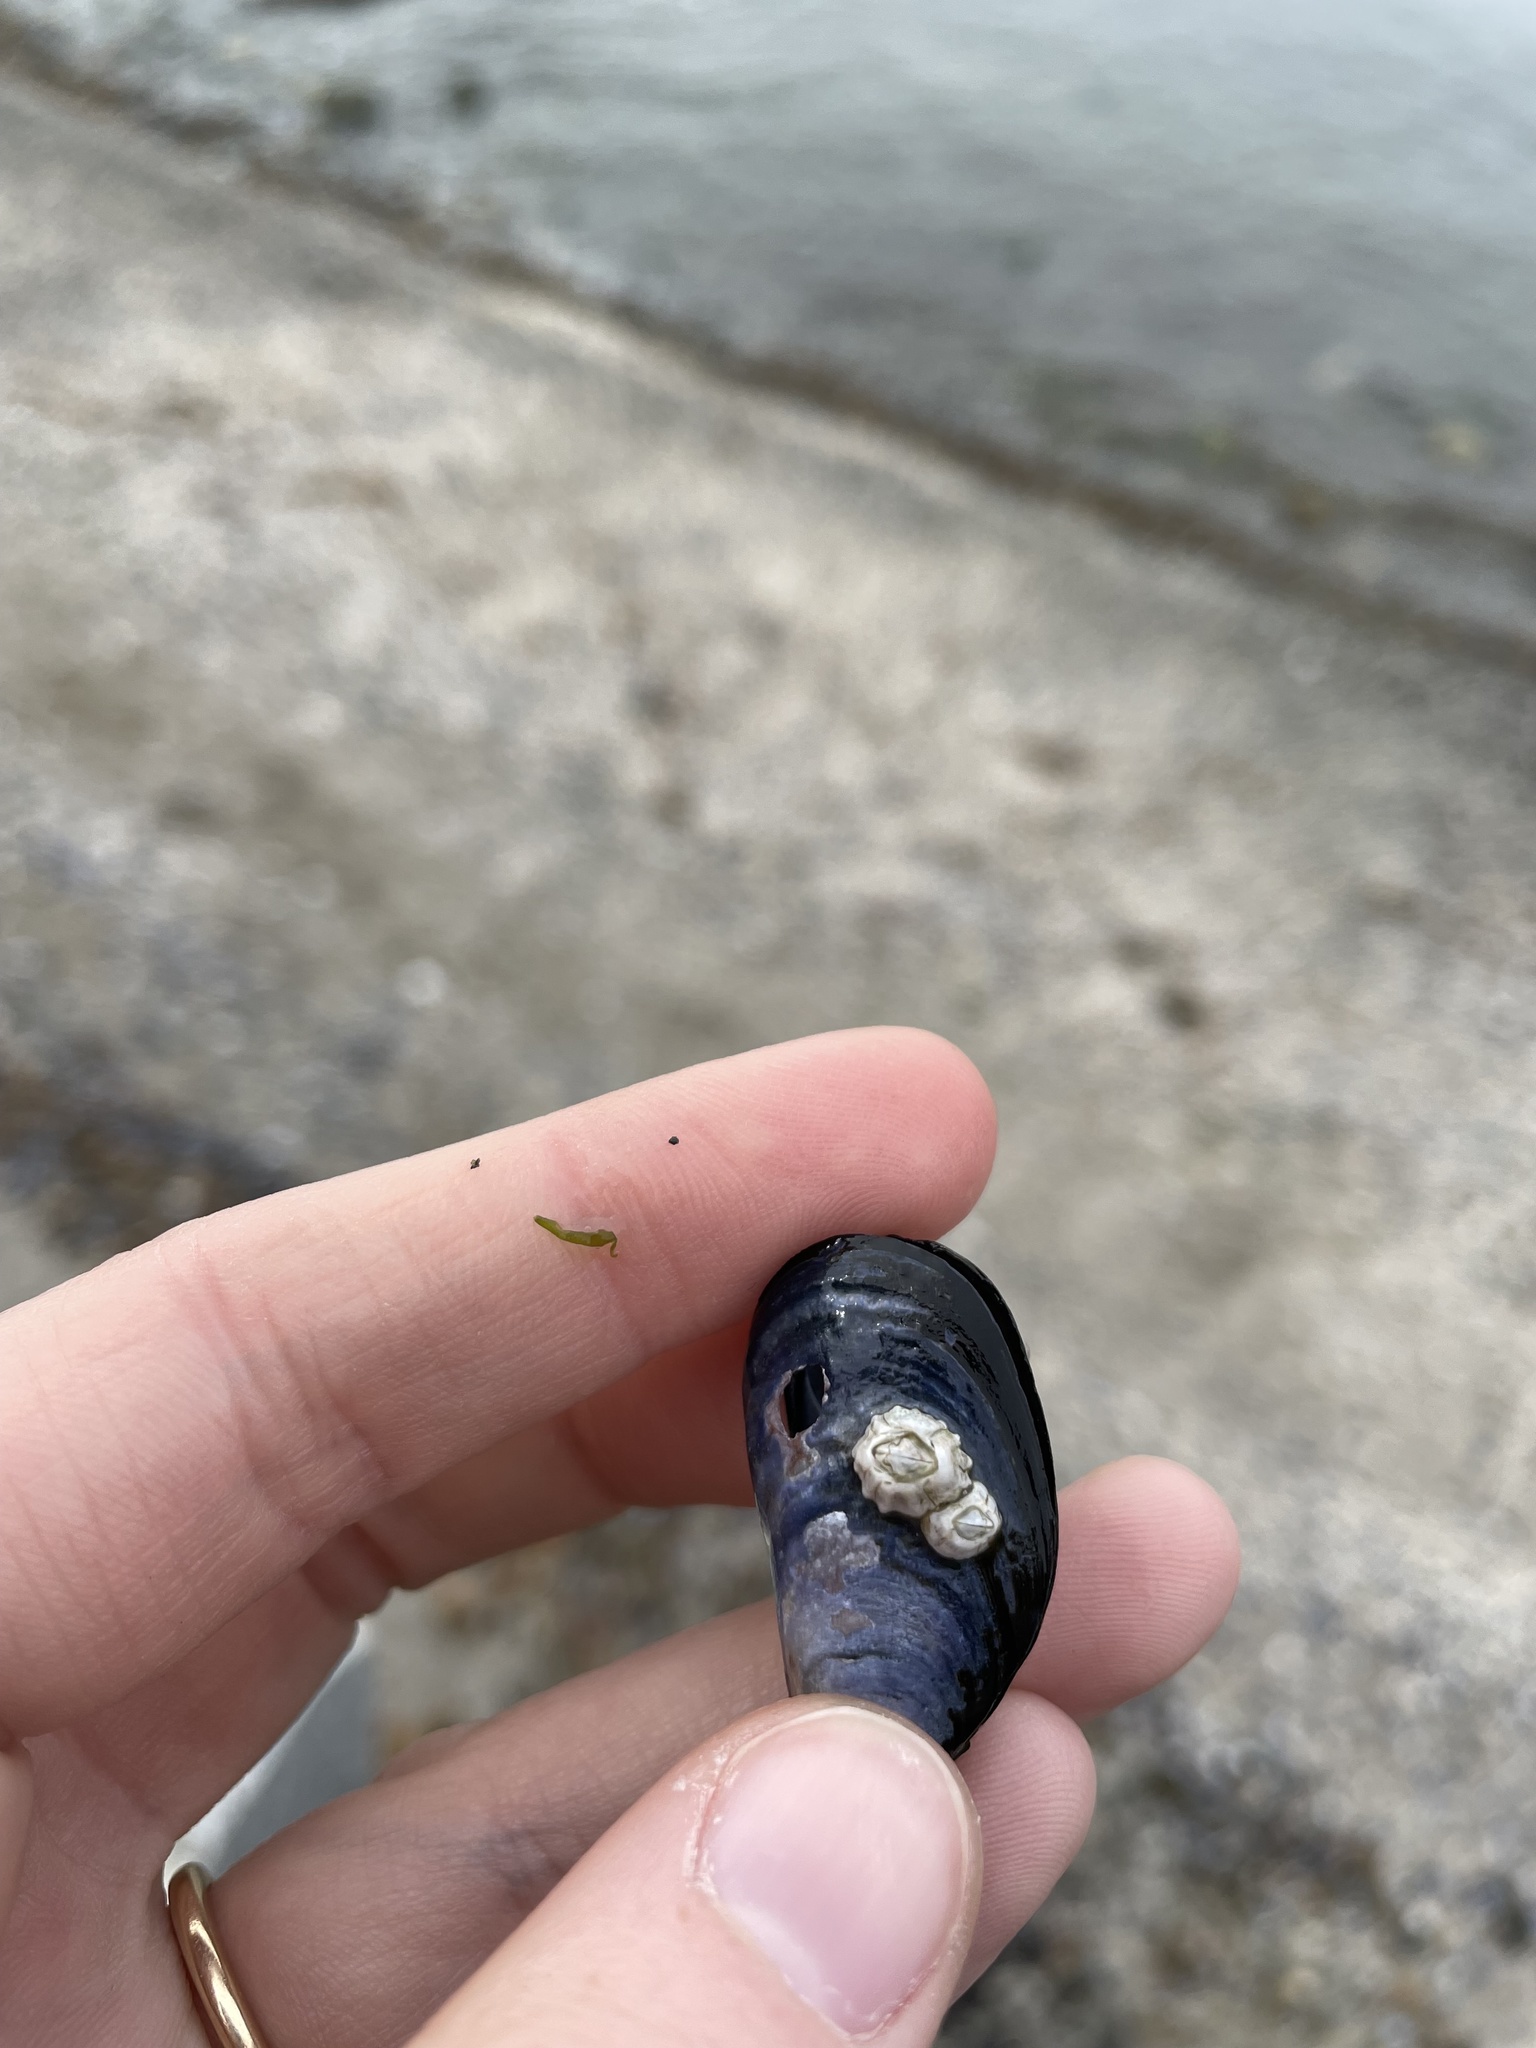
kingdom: Animalia
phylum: Mollusca
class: Bivalvia
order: Mytilida
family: Mytilidae
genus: Mytilus
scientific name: Mytilus
